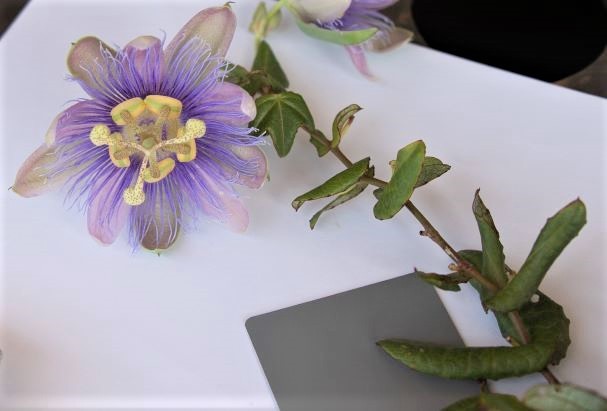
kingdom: Plantae
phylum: Tracheophyta
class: Magnoliopsida
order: Malpighiales
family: Passifloraceae
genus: Passiflora
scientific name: Passiflora garckei
